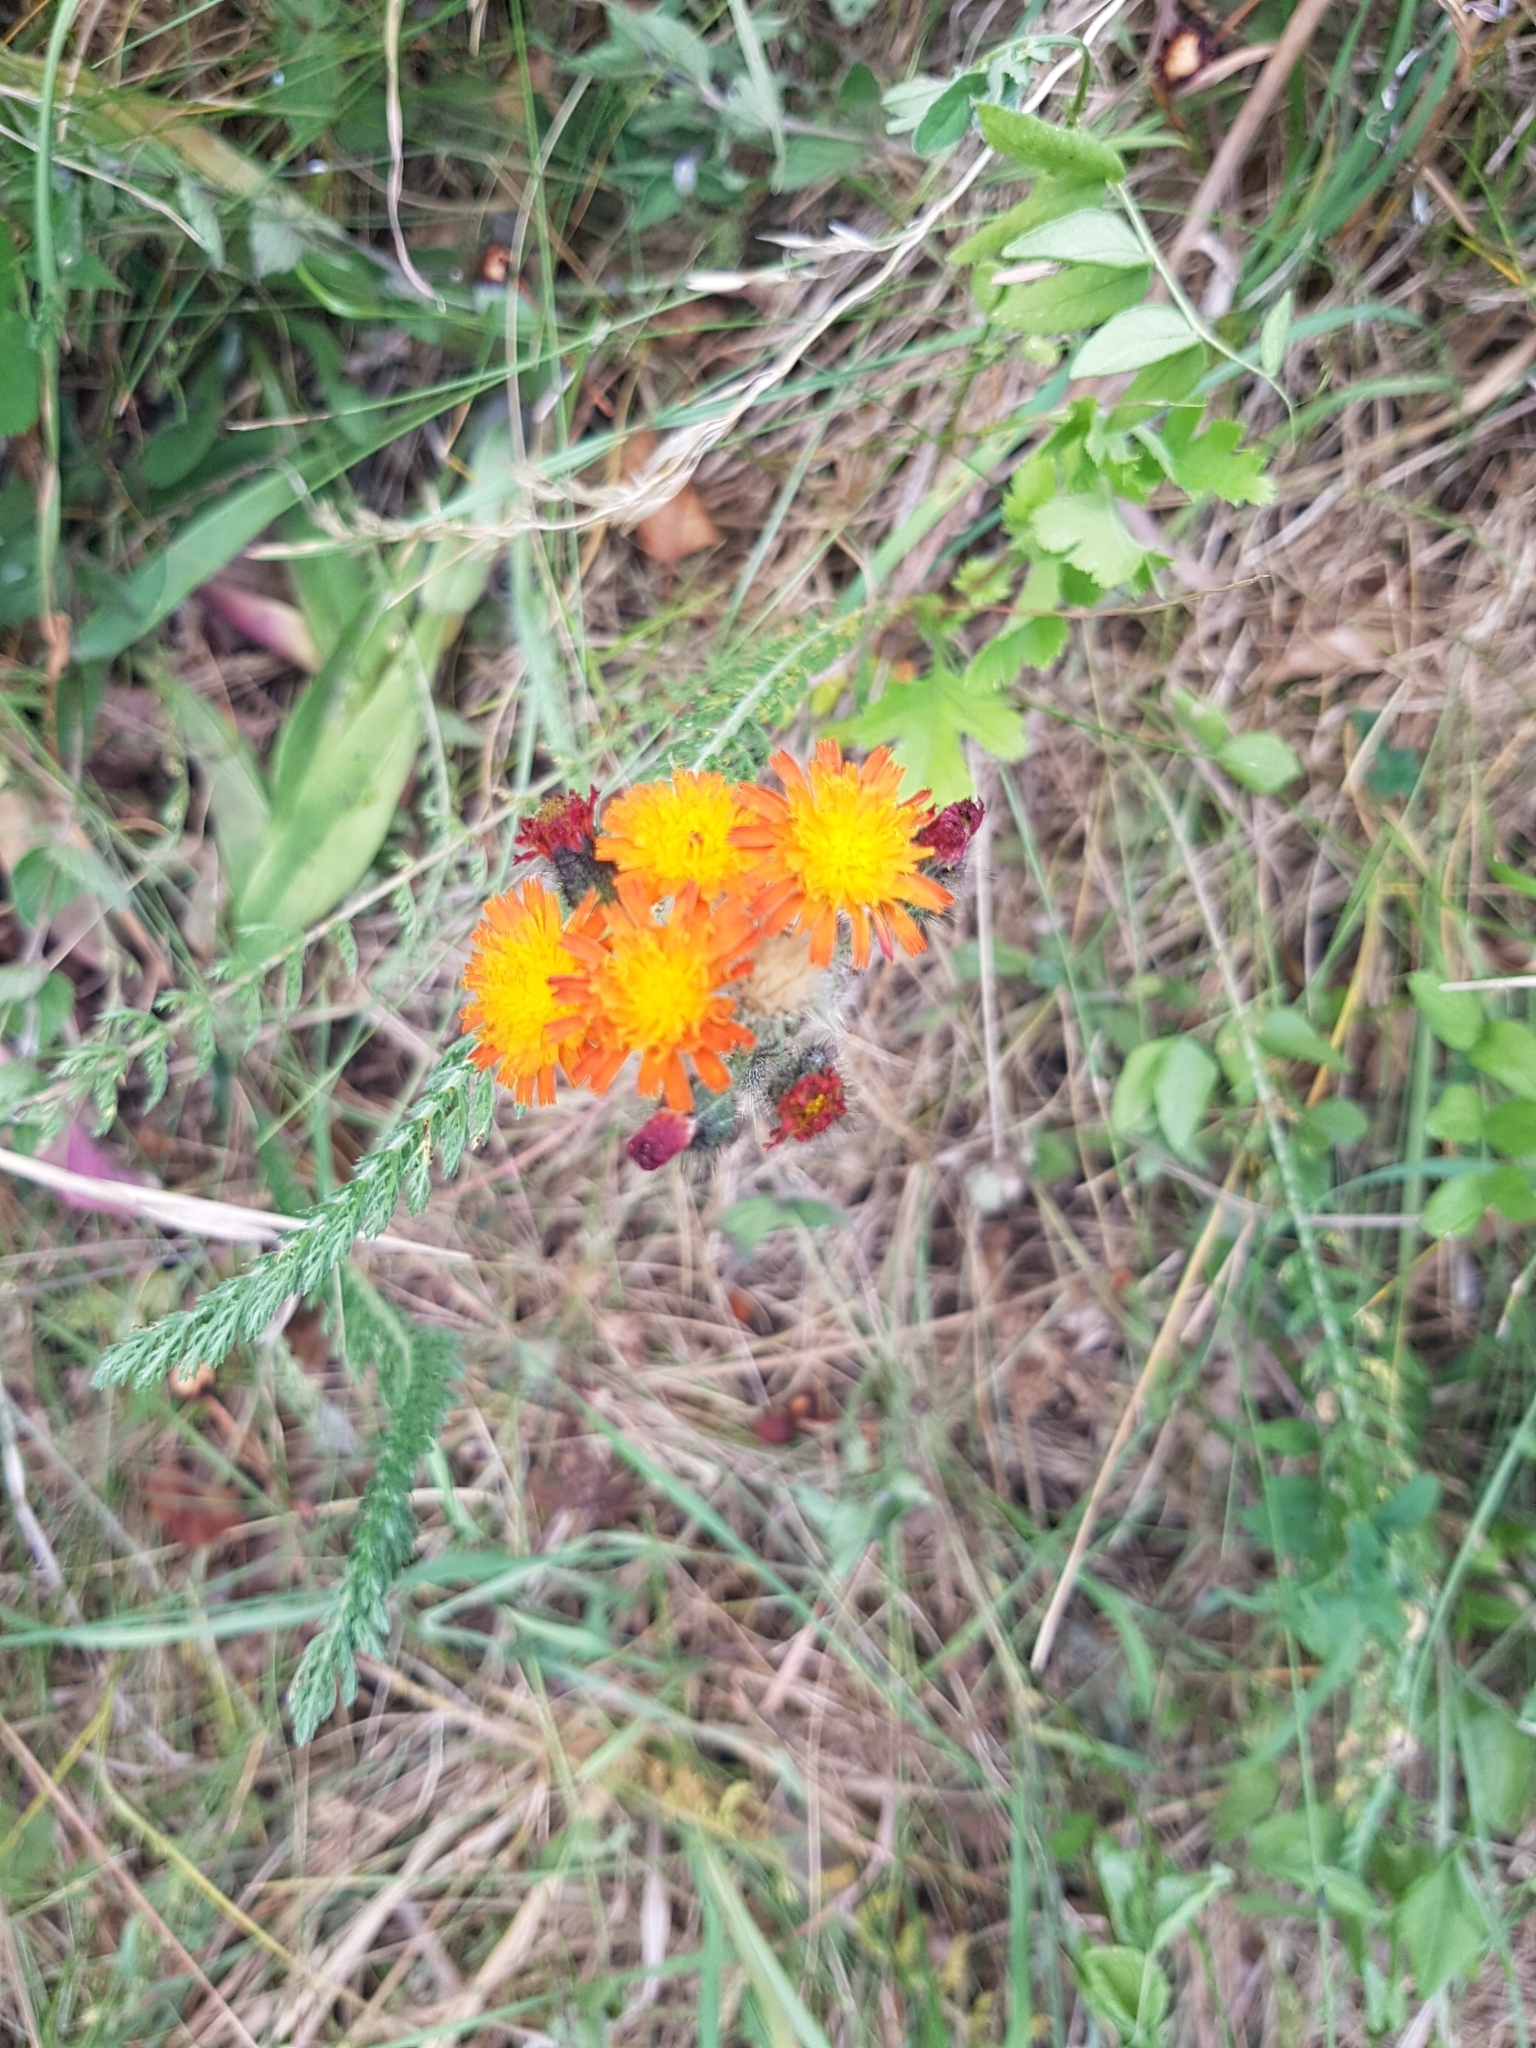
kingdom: Plantae
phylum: Tracheophyta
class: Magnoliopsida
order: Asterales
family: Asteraceae
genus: Pilosella
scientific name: Pilosella aurantiaca
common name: Fox-and-cubs
